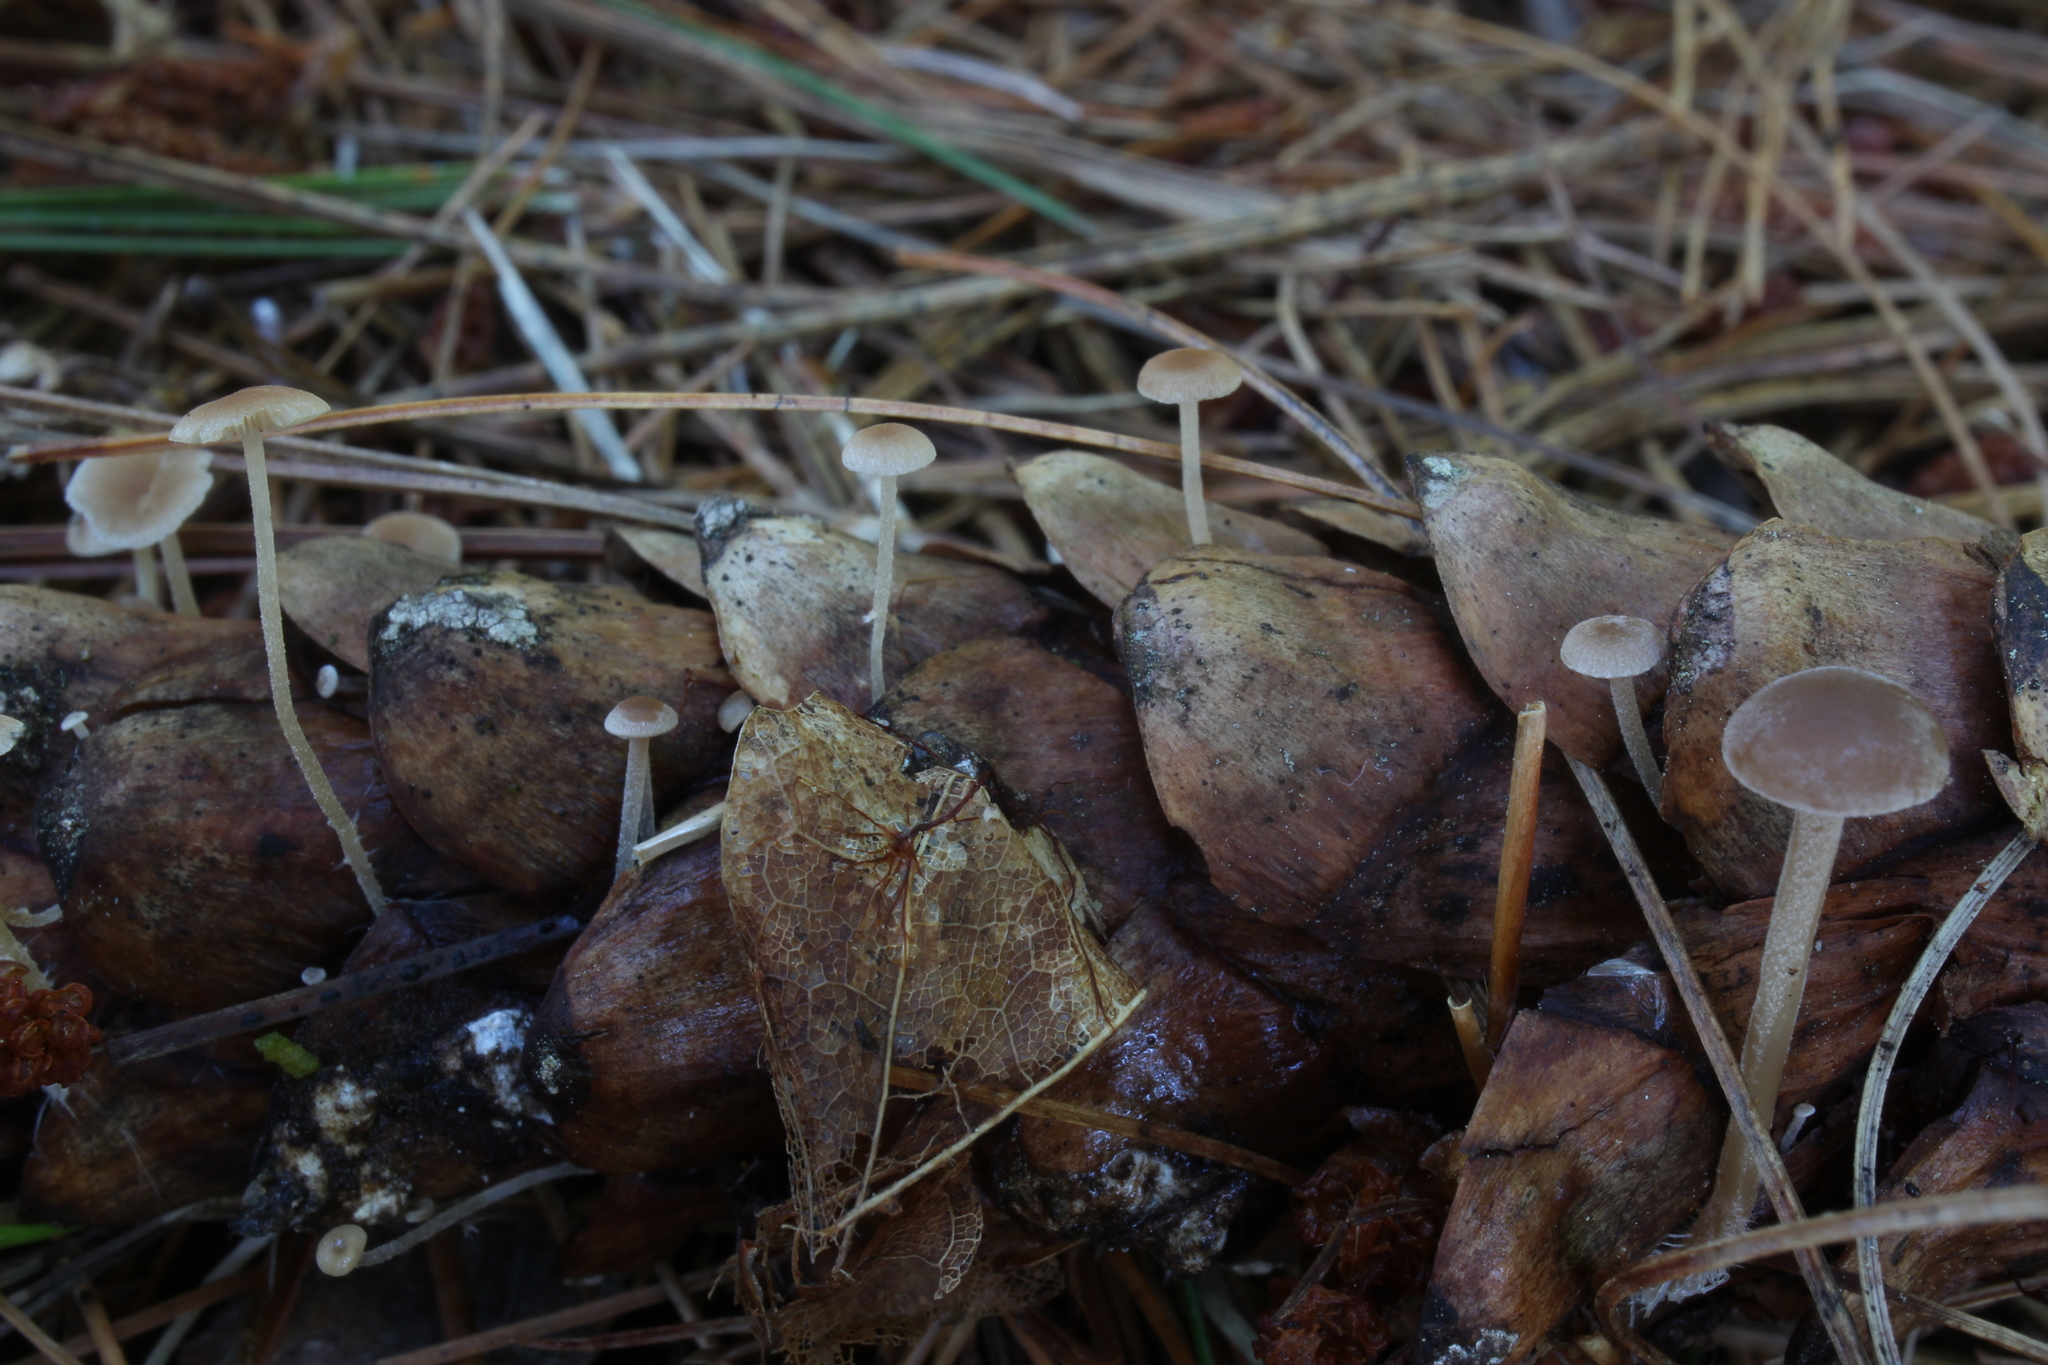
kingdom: Fungi
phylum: Basidiomycota
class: Agaricomycetes
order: Agaricales
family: Marasmiaceae
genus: Baeospora
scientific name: Baeospora myosura
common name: Conifercone cap
